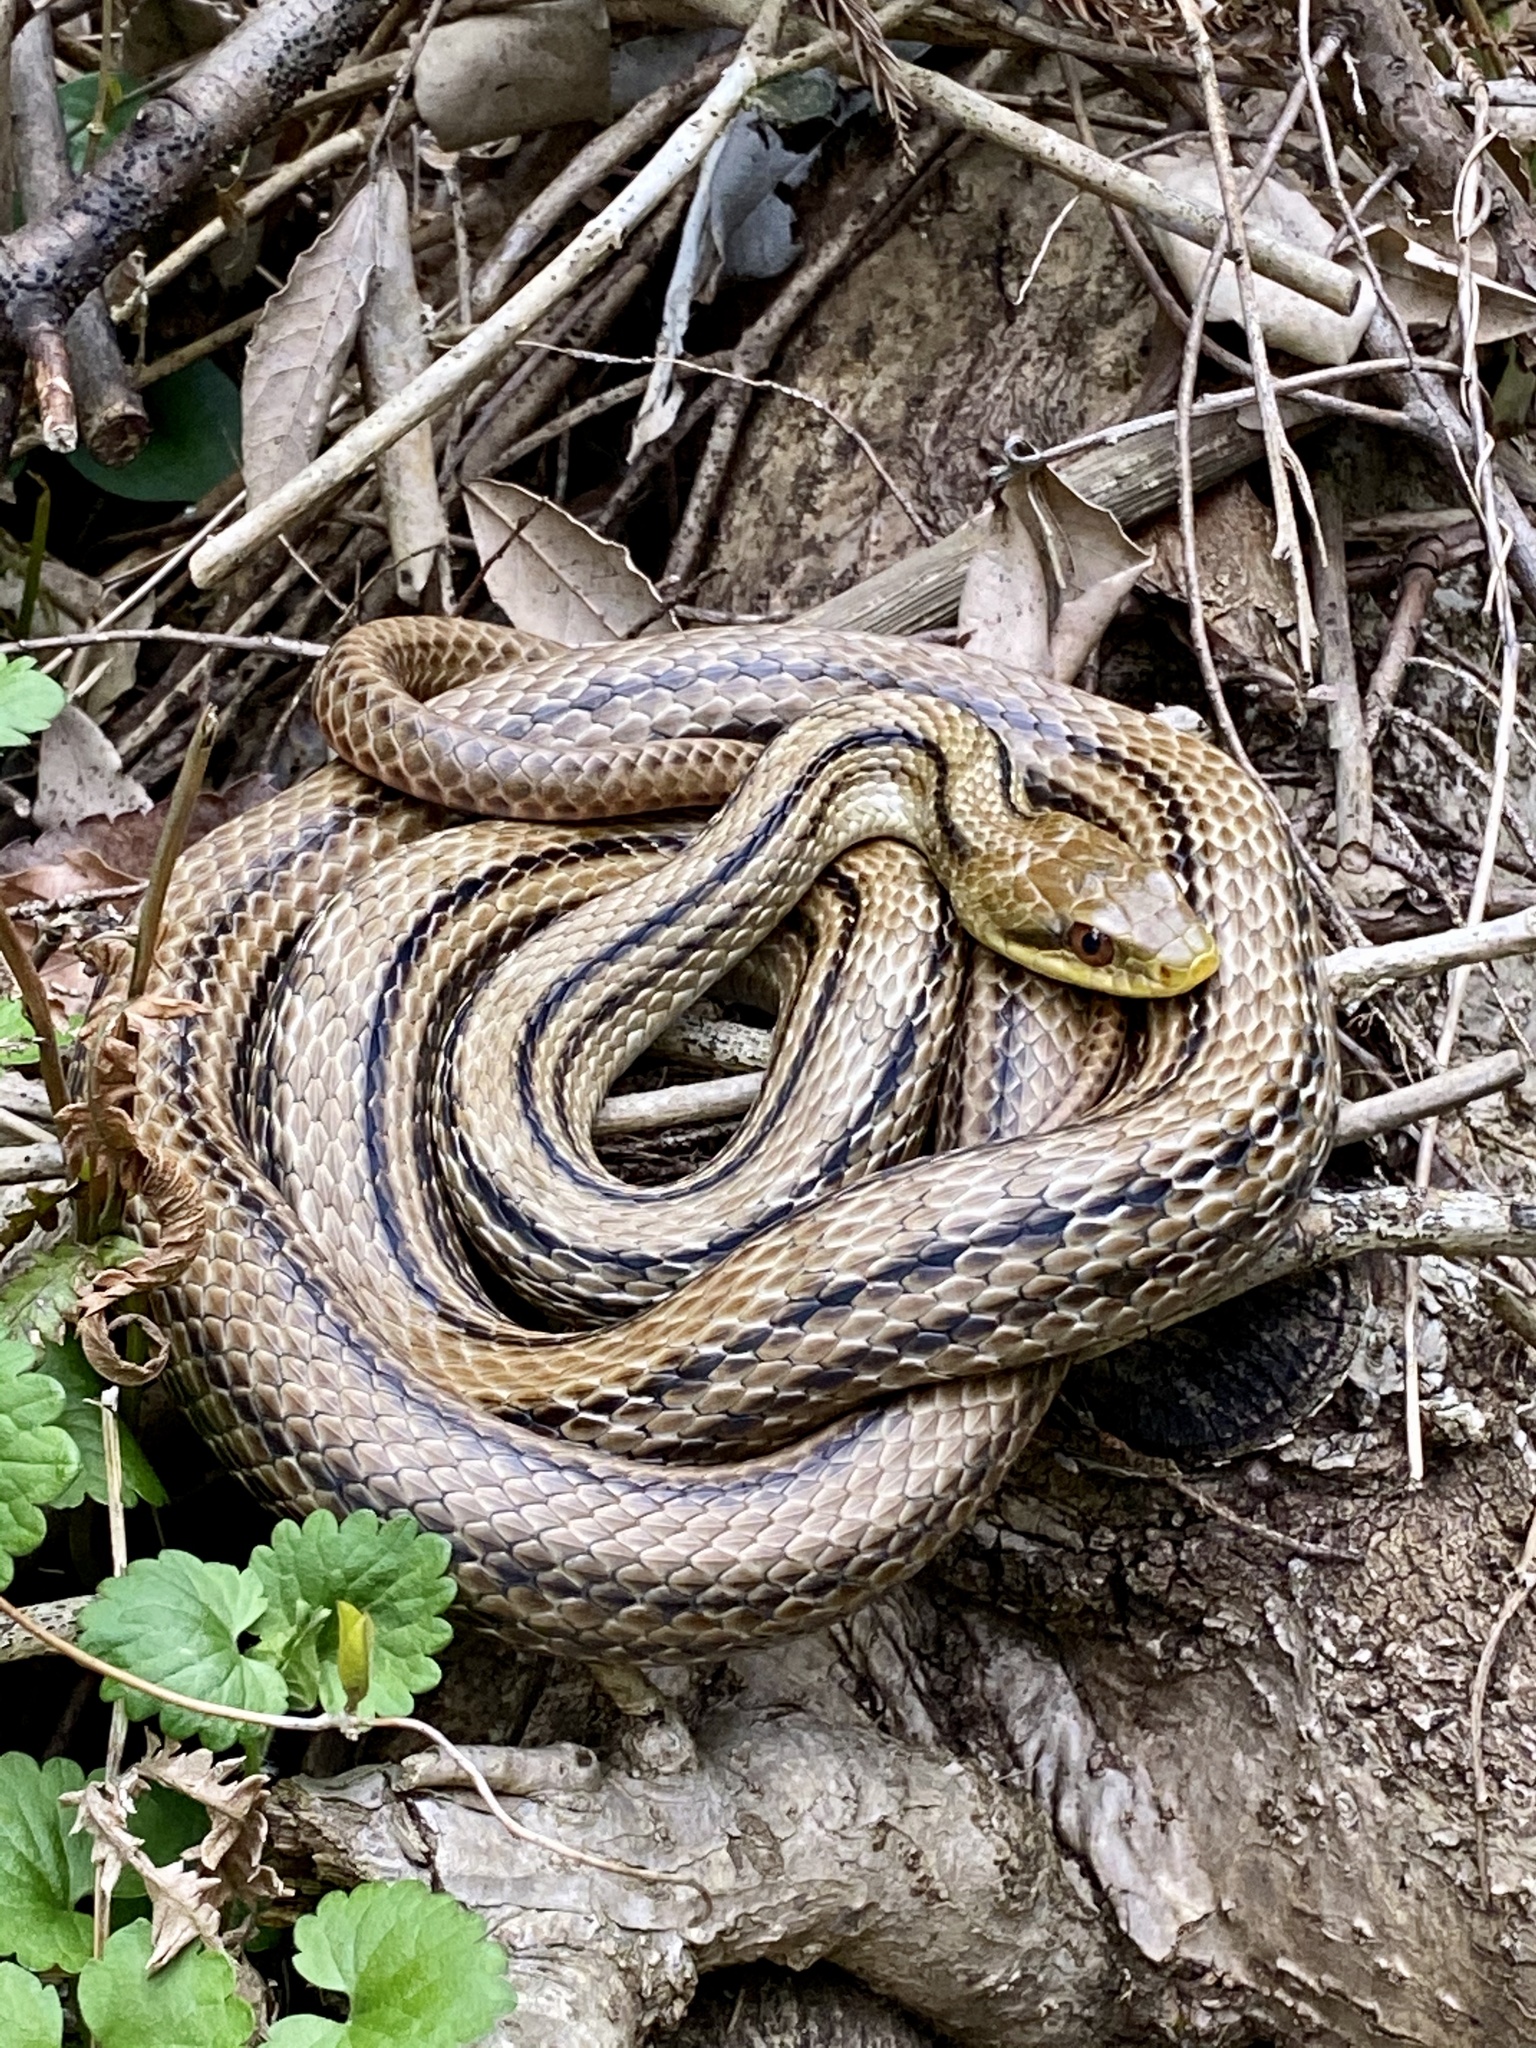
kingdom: Animalia
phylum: Chordata
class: Squamata
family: Colubridae
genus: Elaphe
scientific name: Elaphe quadrivirgata
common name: Japanese four-lined ratsnake
